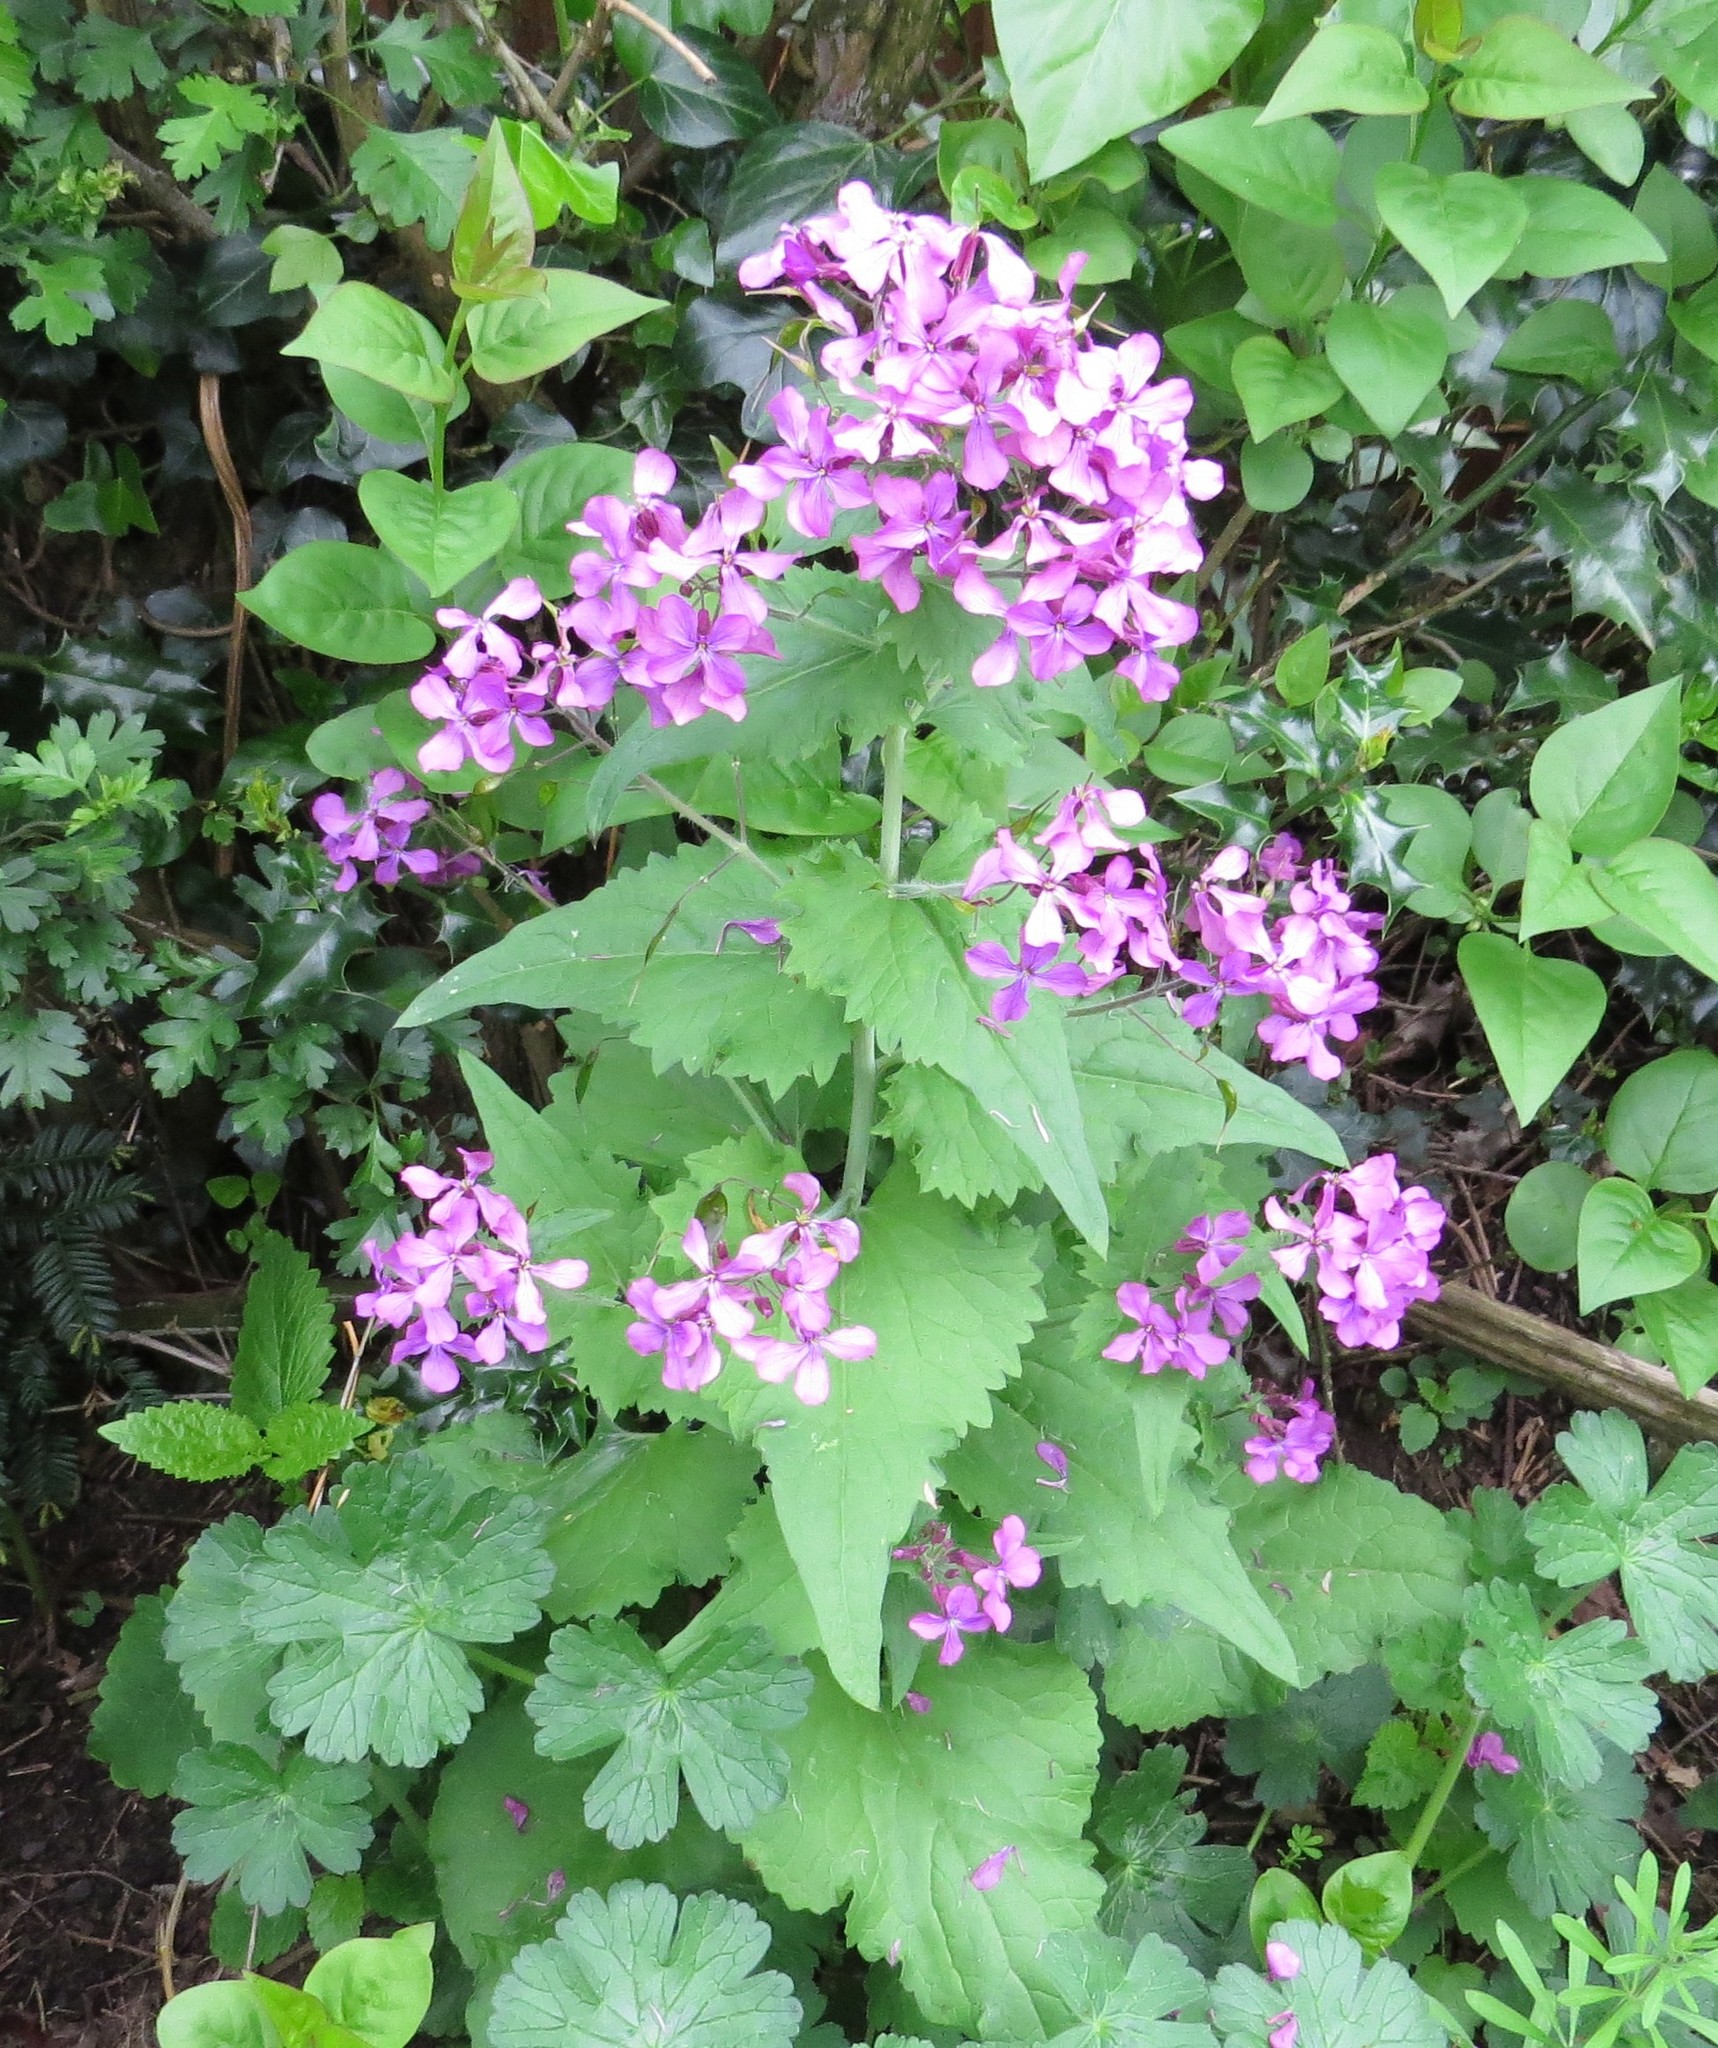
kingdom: Plantae
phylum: Tracheophyta
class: Magnoliopsida
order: Brassicales
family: Brassicaceae
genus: Lunaria
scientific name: Lunaria annua
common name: Honesty
